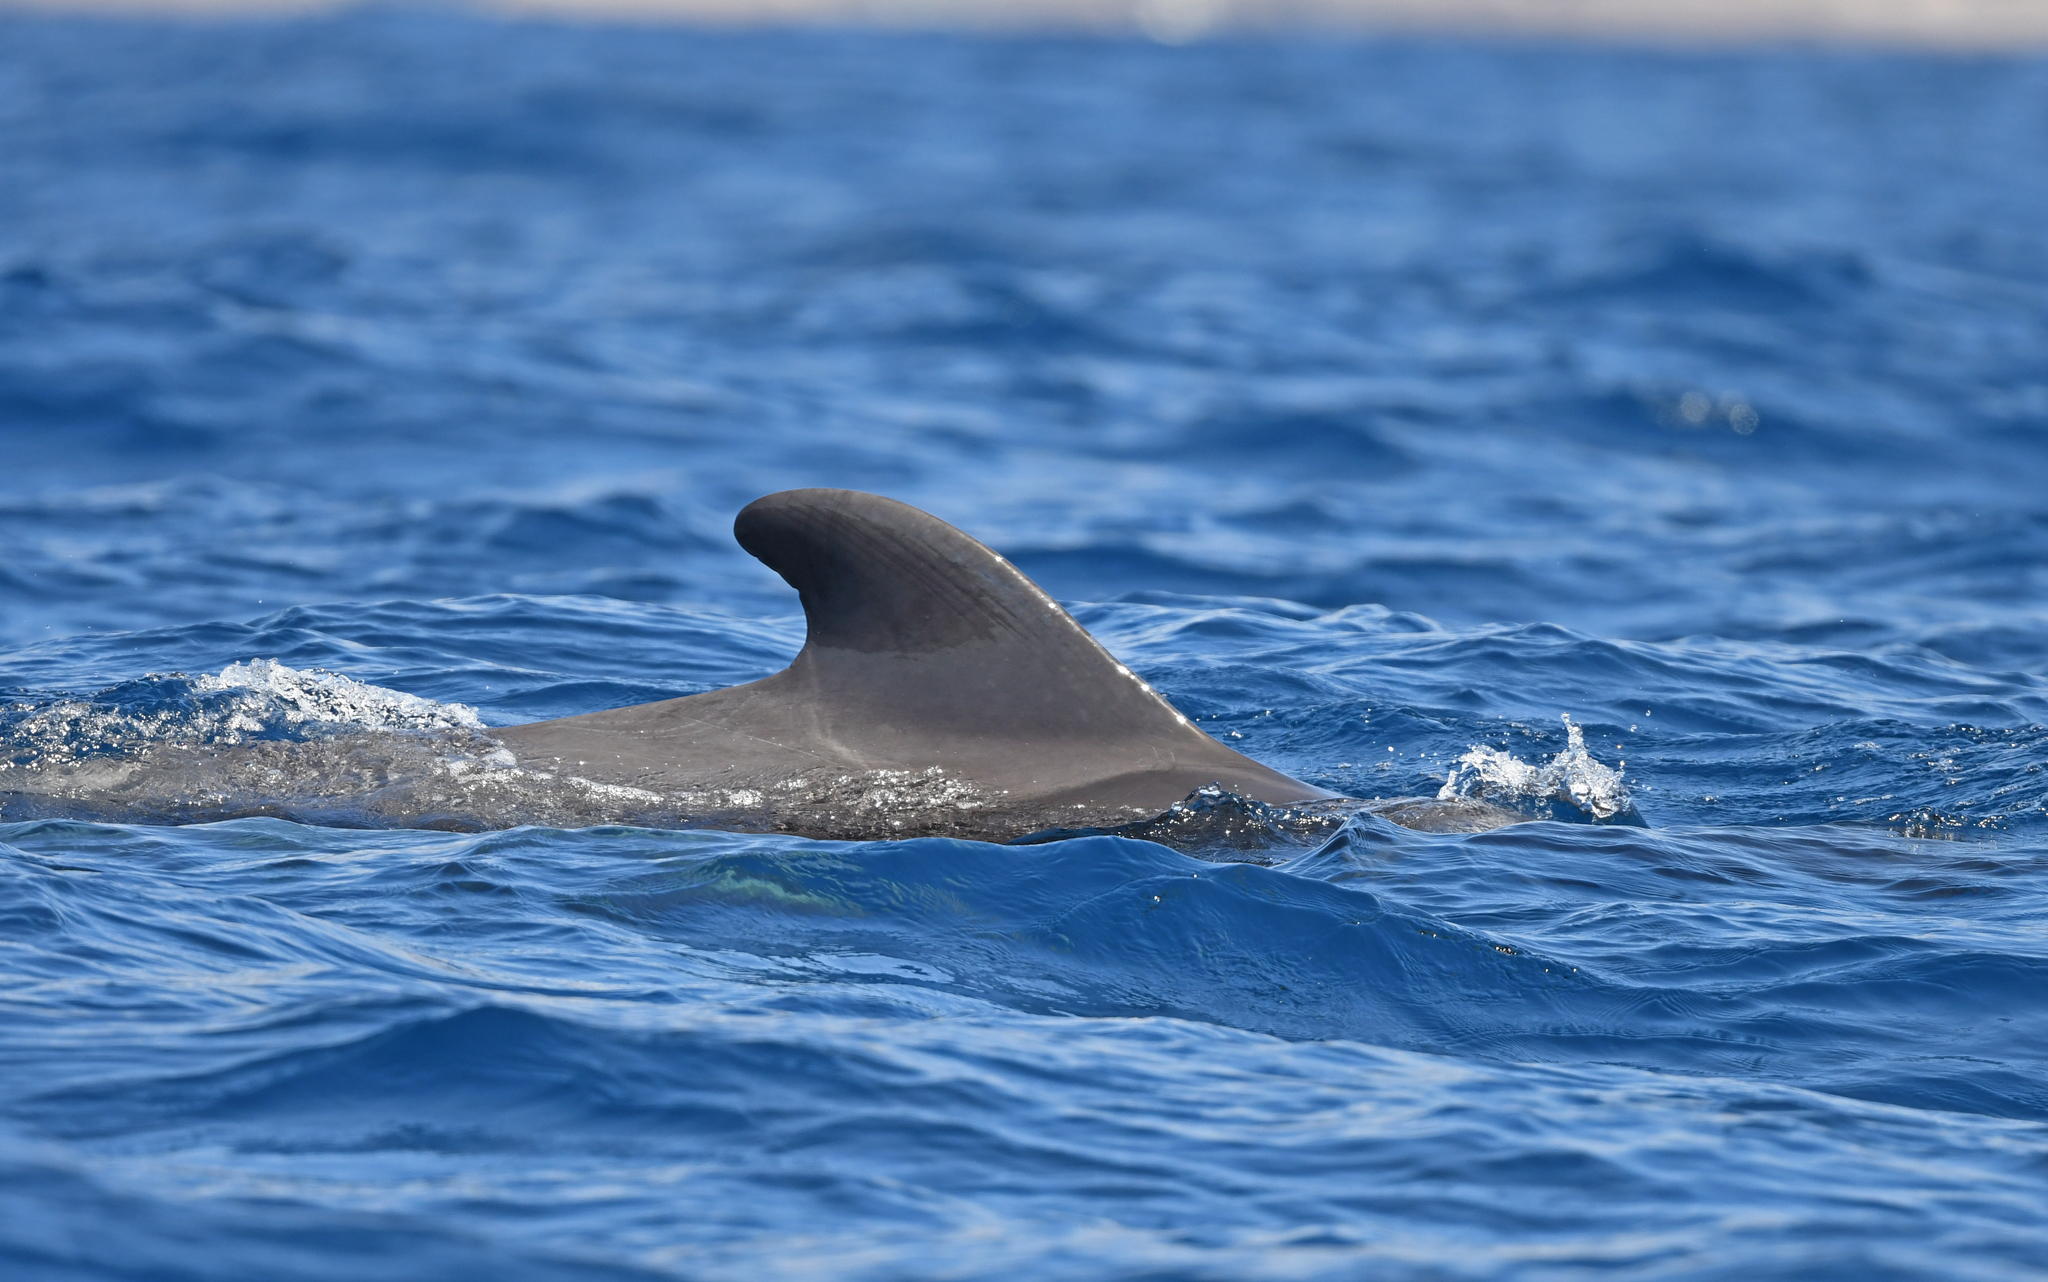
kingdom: Animalia
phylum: Chordata
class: Mammalia
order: Cetacea
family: Delphinidae
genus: Globicephala
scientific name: Globicephala macrorhynchus
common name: Short-finned pilot whale
